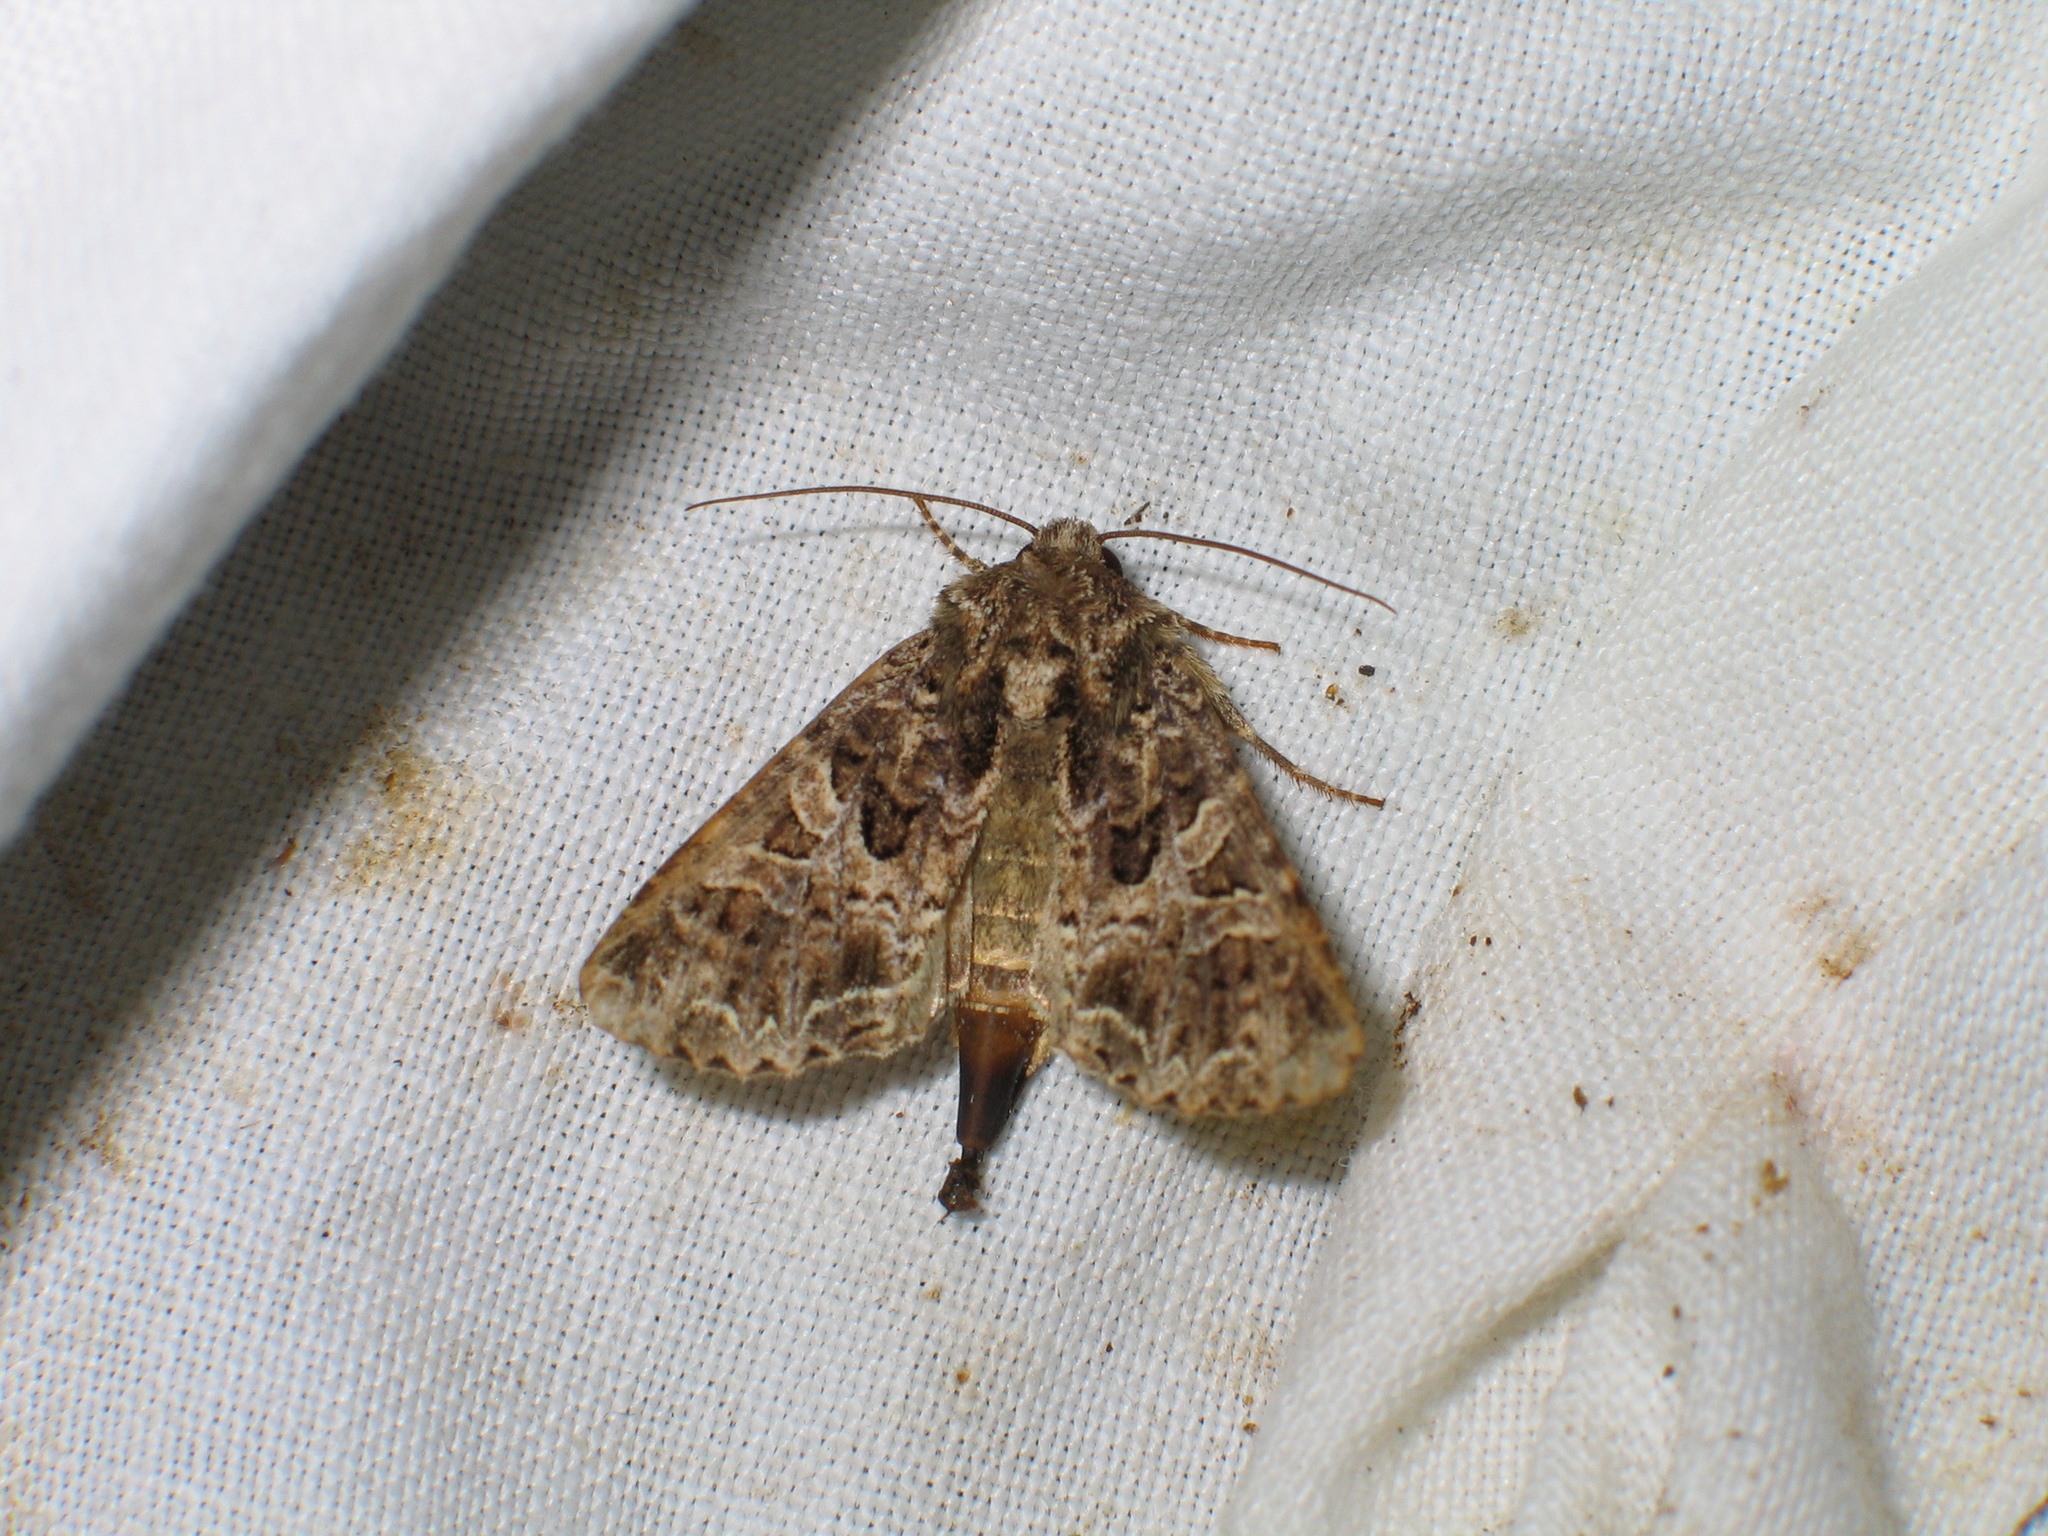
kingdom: Animalia
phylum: Arthropoda
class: Insecta
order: Lepidoptera
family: Noctuidae
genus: Hadena
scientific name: Hadena bicruris
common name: Lychnis
